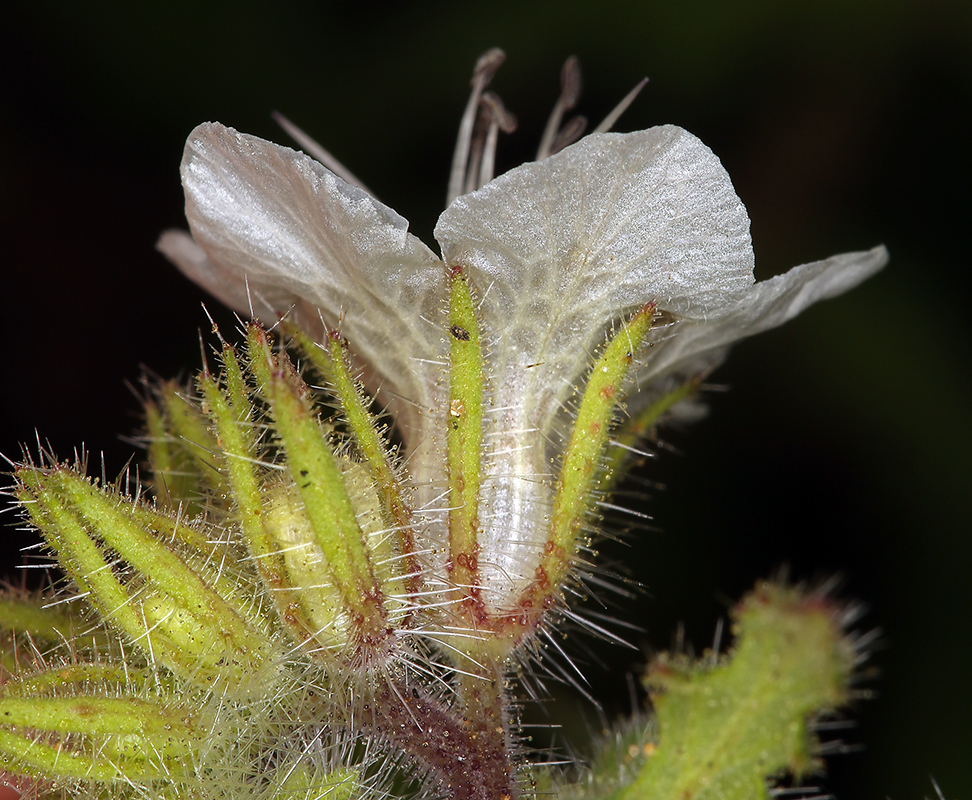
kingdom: Plantae
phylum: Tracheophyta
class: Magnoliopsida
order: Boraginales
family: Hydrophyllaceae
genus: Phacelia
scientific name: Phacelia cicutaria
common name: Caterpillar phacelia
